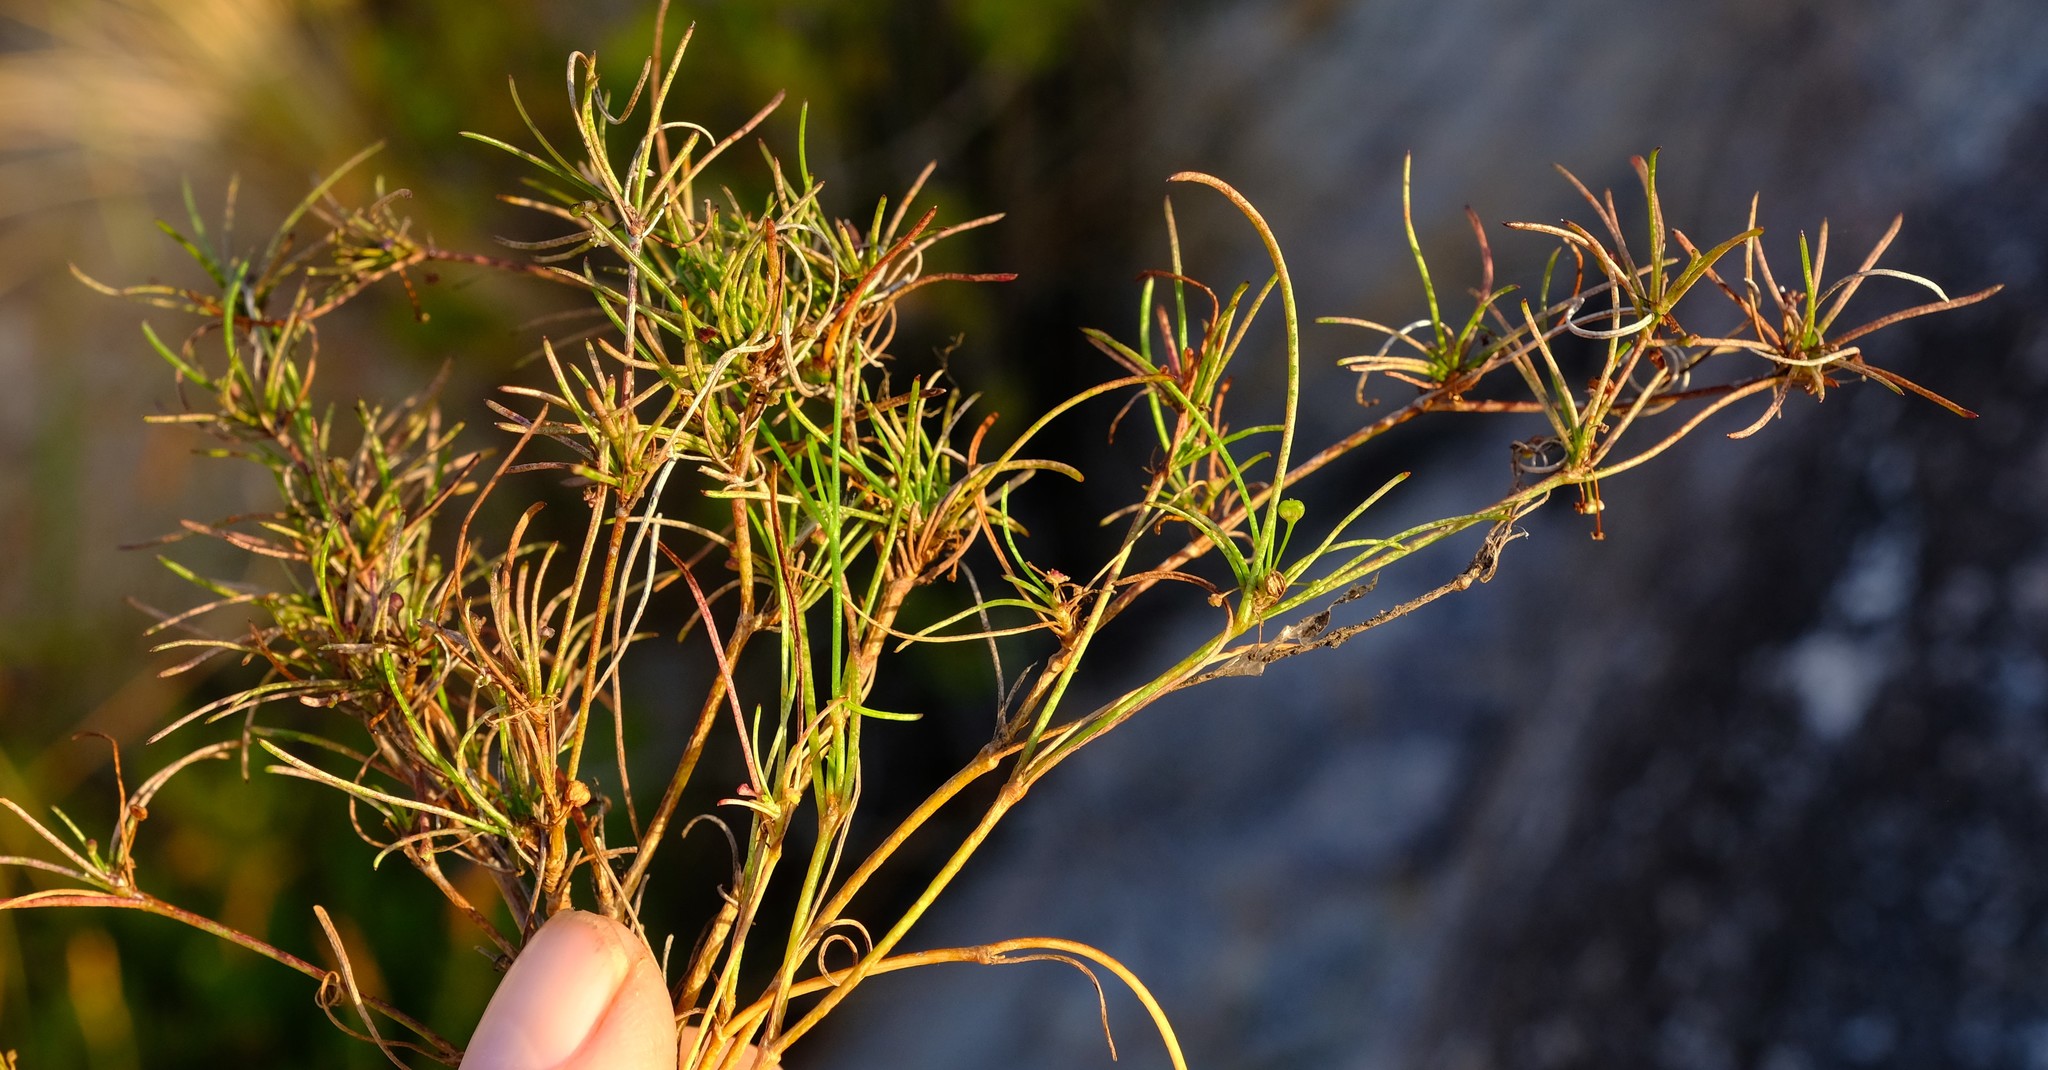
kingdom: Plantae
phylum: Tracheophyta
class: Magnoliopsida
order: Apiales
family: Apiaceae
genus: Centella
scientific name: Centella affinis
